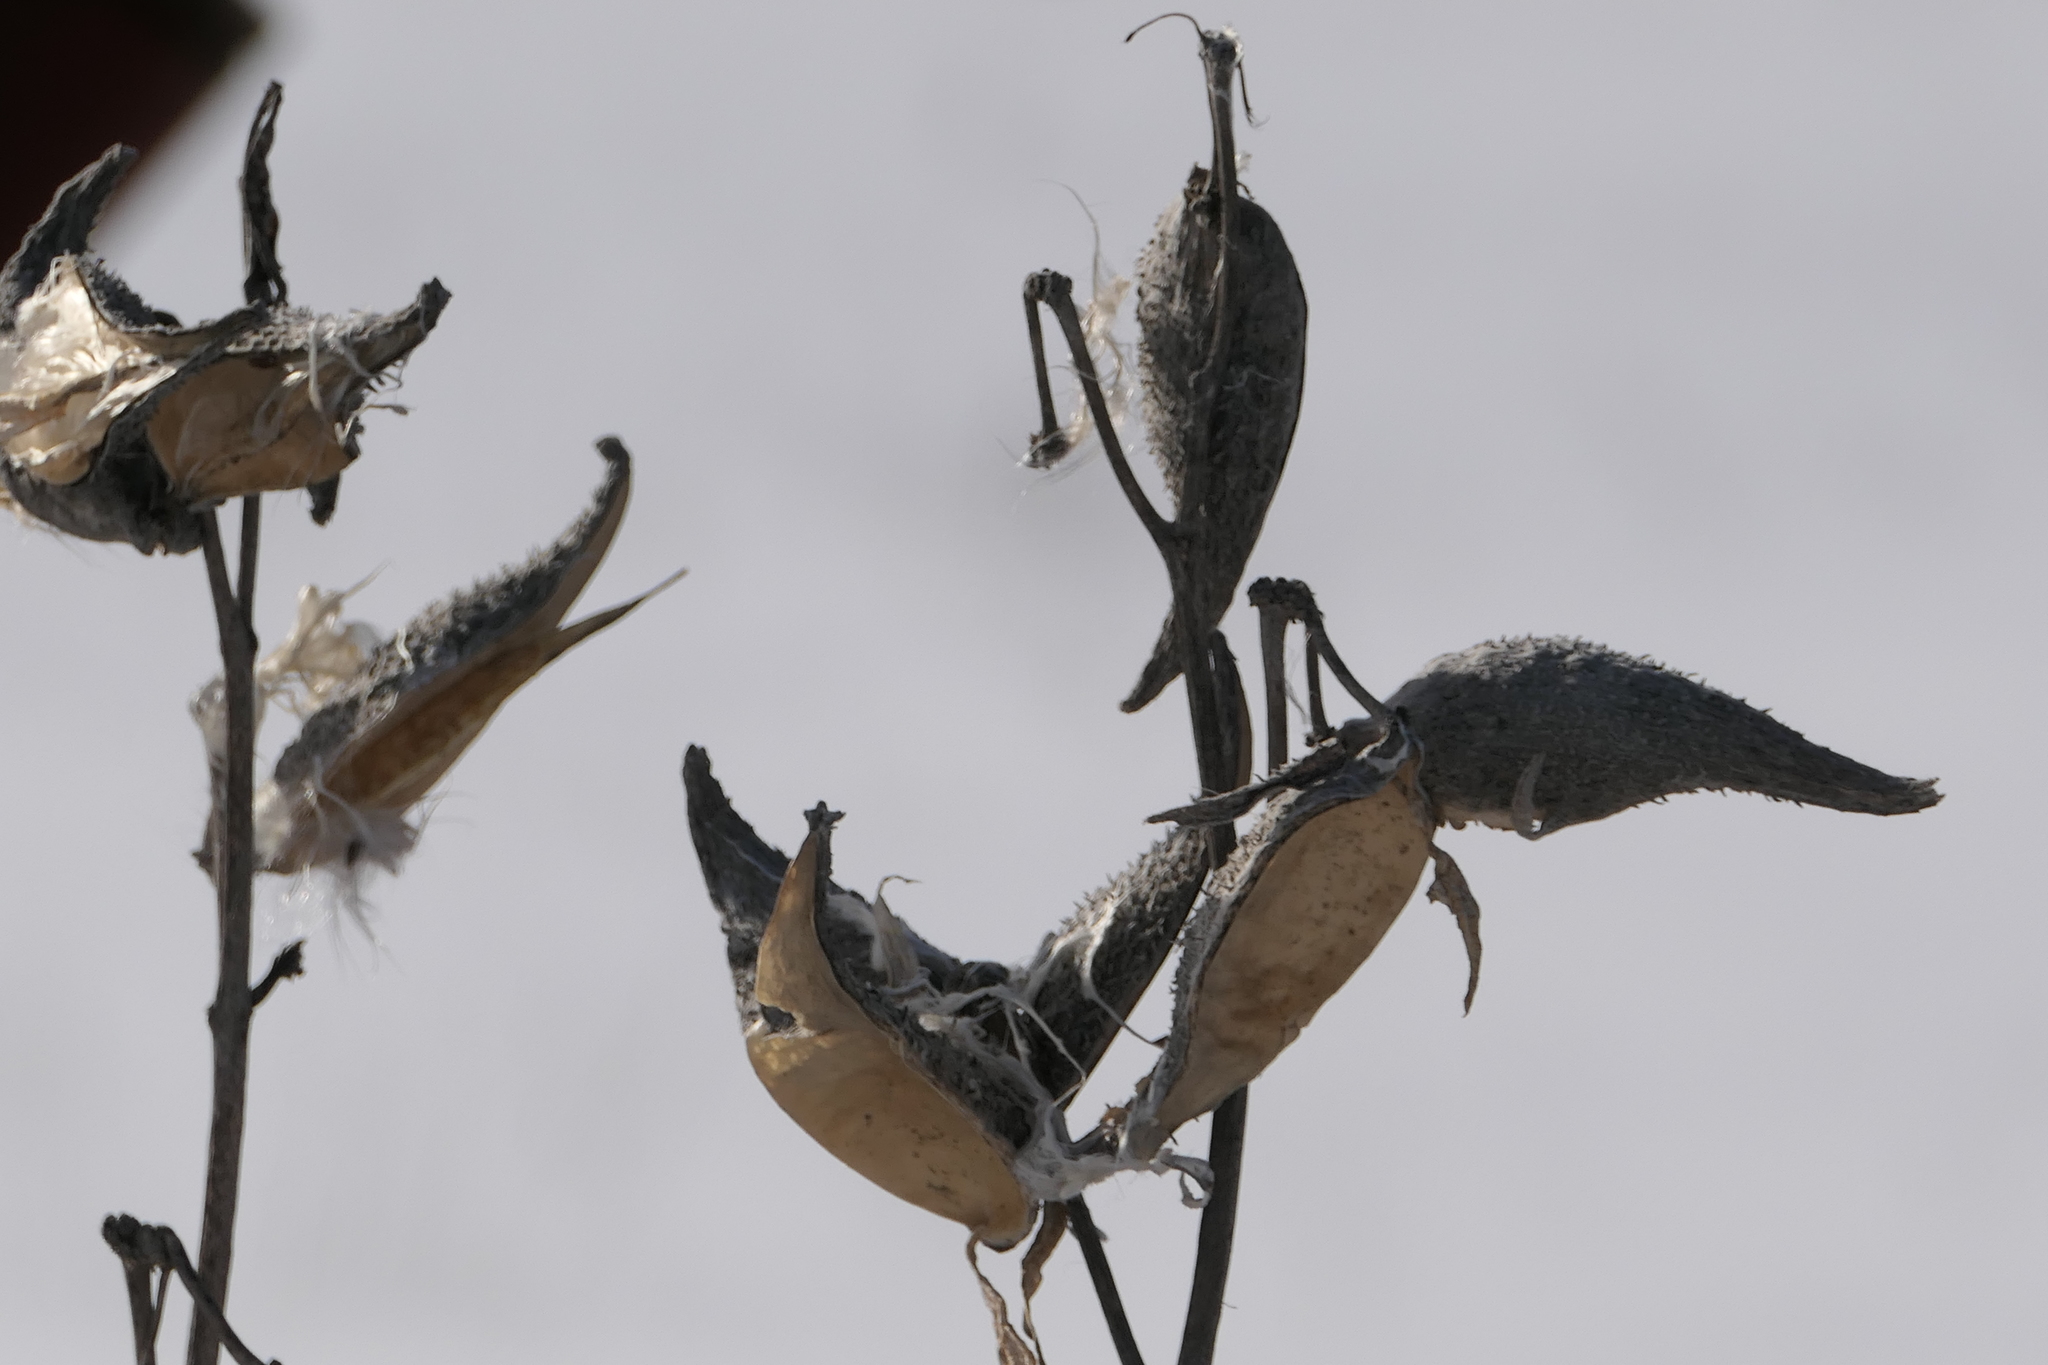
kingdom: Plantae
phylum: Tracheophyta
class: Magnoliopsida
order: Gentianales
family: Apocynaceae
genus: Asclepias
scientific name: Asclepias syriaca
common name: Common milkweed
